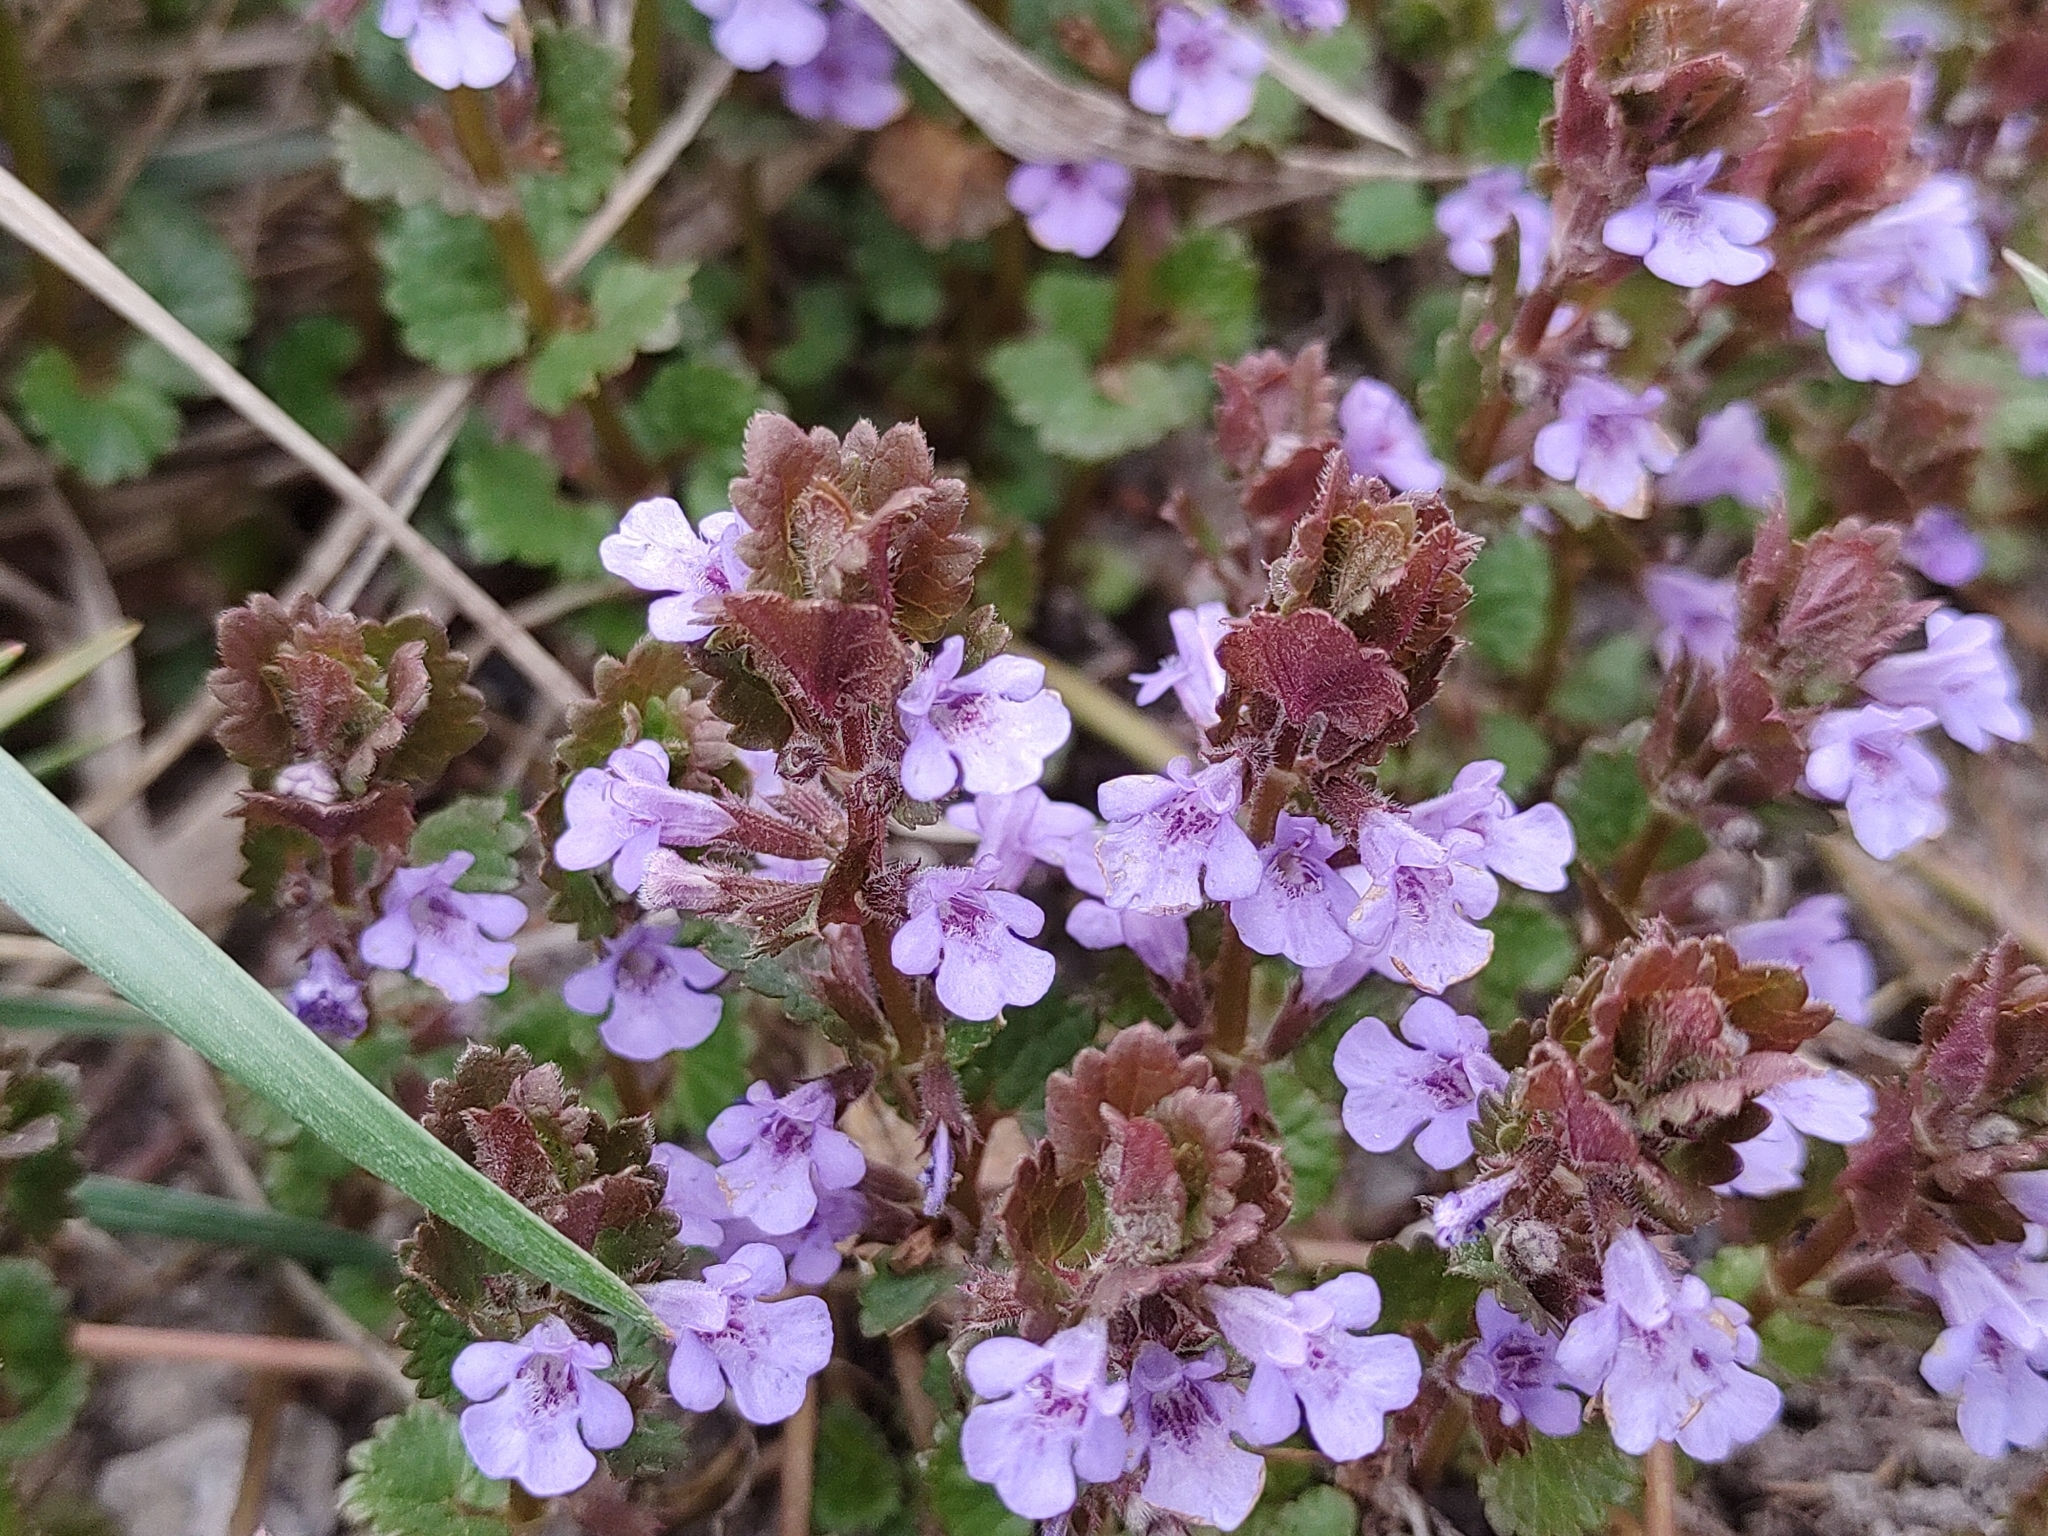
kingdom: Plantae
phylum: Tracheophyta
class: Magnoliopsida
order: Lamiales
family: Lamiaceae
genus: Glechoma
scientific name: Glechoma hederacea
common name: Ground ivy
